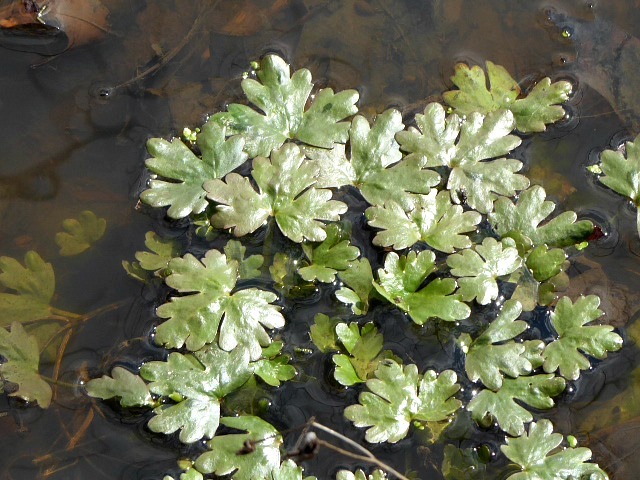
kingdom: Plantae
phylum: Tracheophyta
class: Magnoliopsida
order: Ranunculales
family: Ranunculaceae
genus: Ranunculus
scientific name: Ranunculus sceleratus
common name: Celery-leaved buttercup
